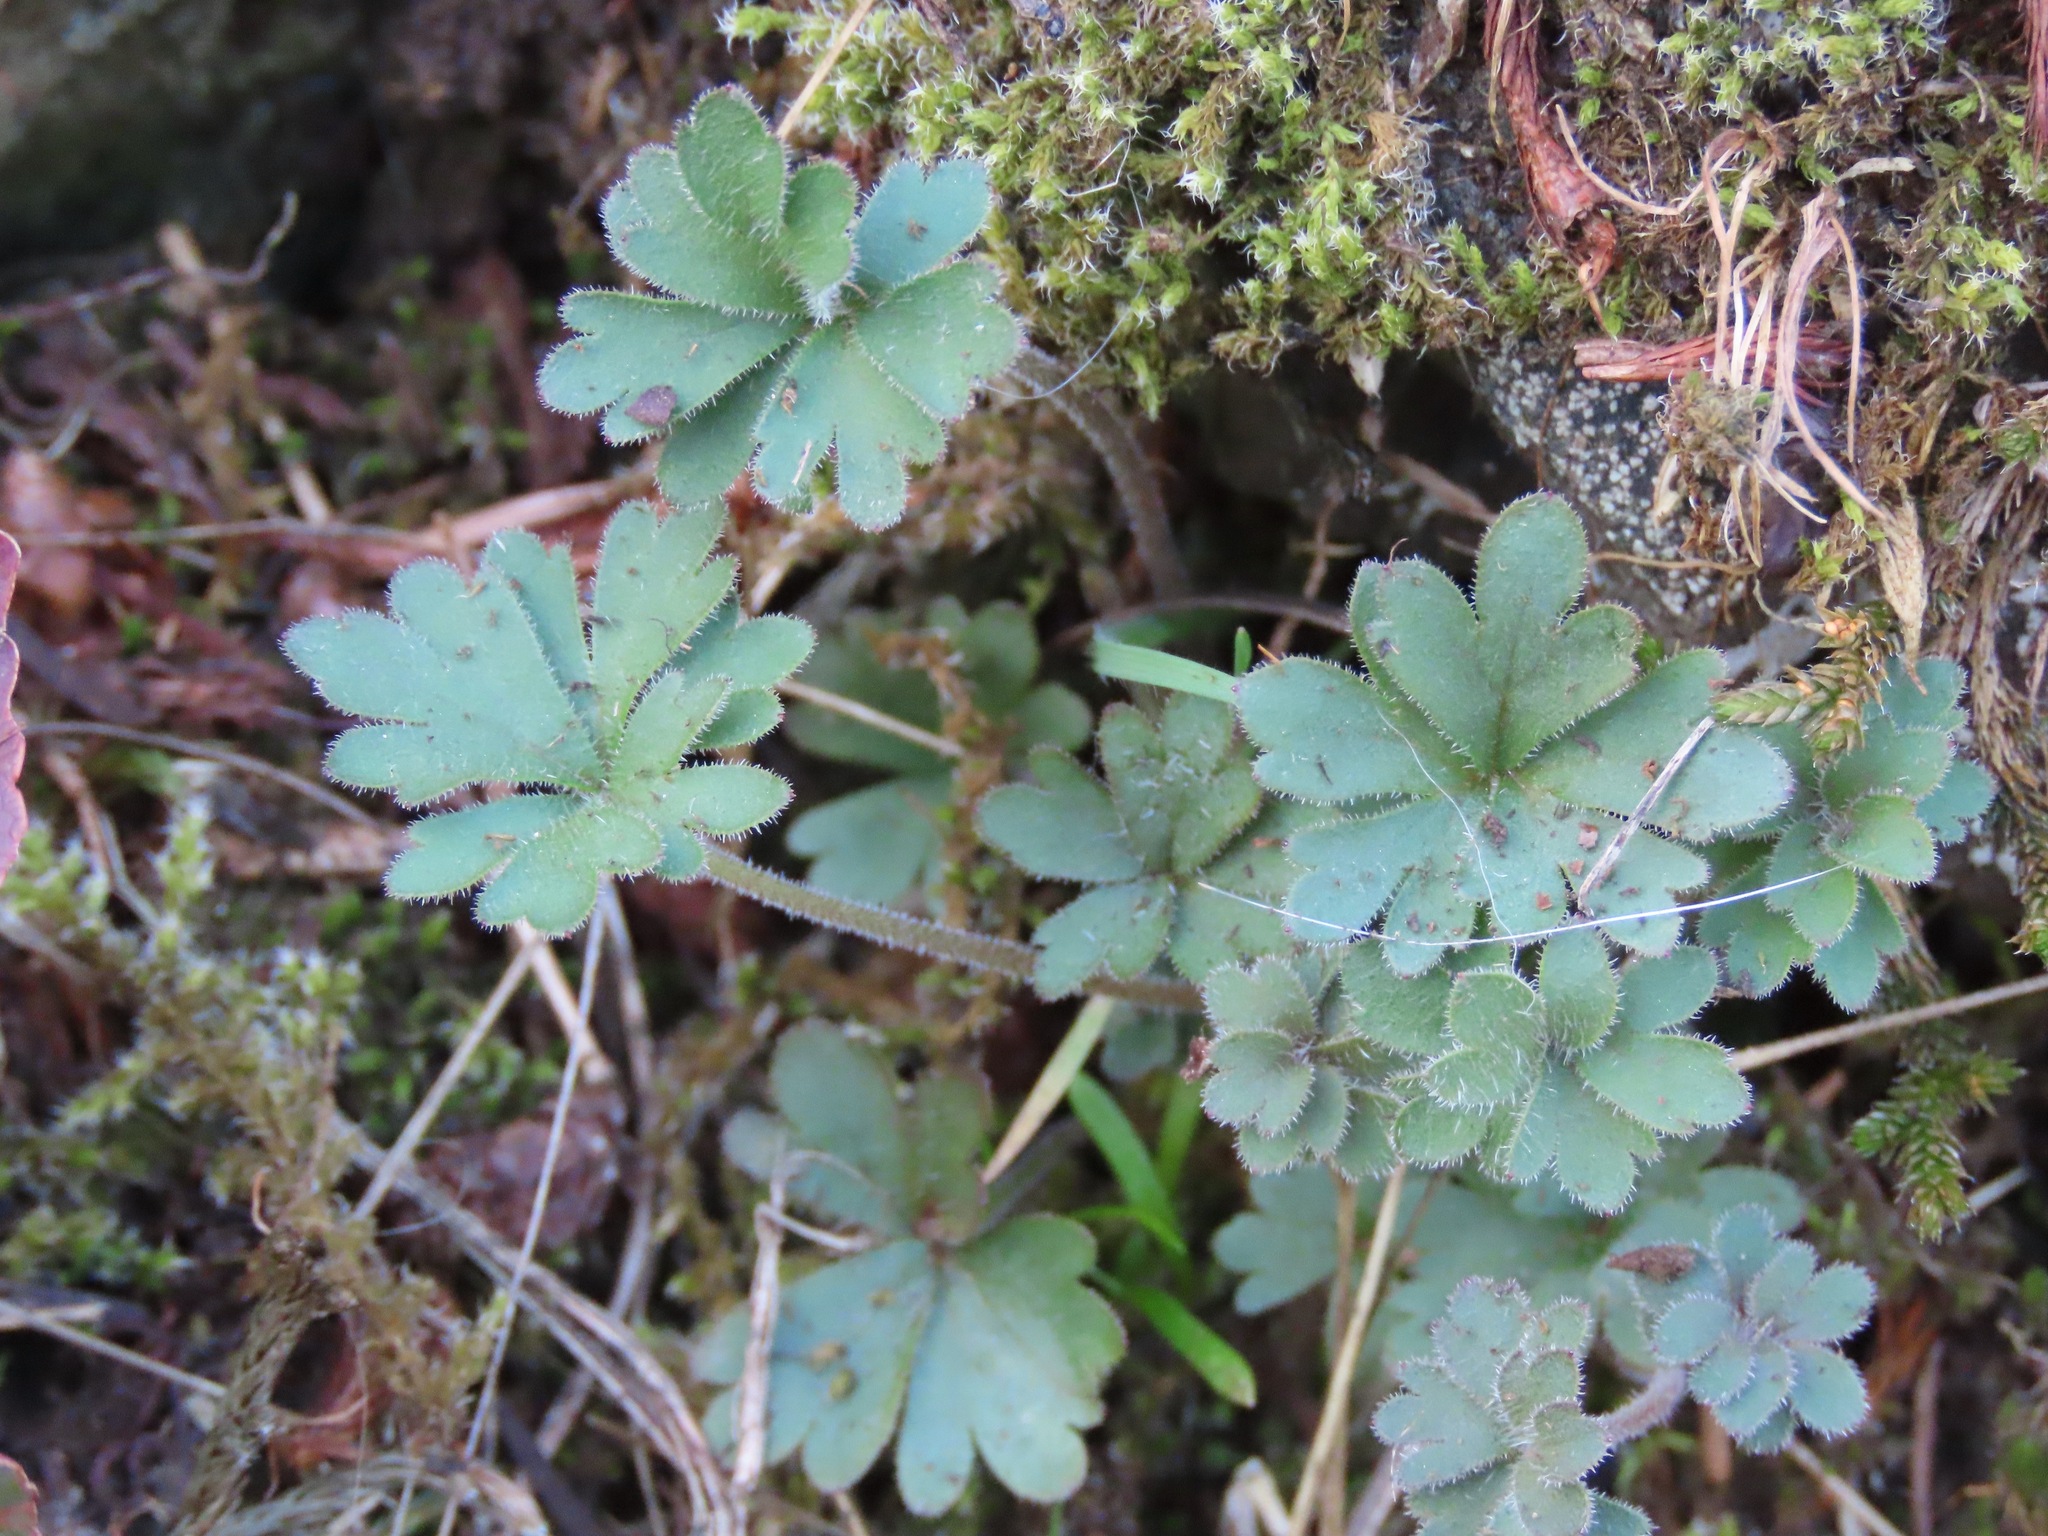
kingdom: Plantae
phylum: Tracheophyta
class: Magnoliopsida
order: Saxifragales
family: Saxifragaceae
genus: Lithophragma
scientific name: Lithophragma parviflorum
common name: Small-flowered fringe-cup
